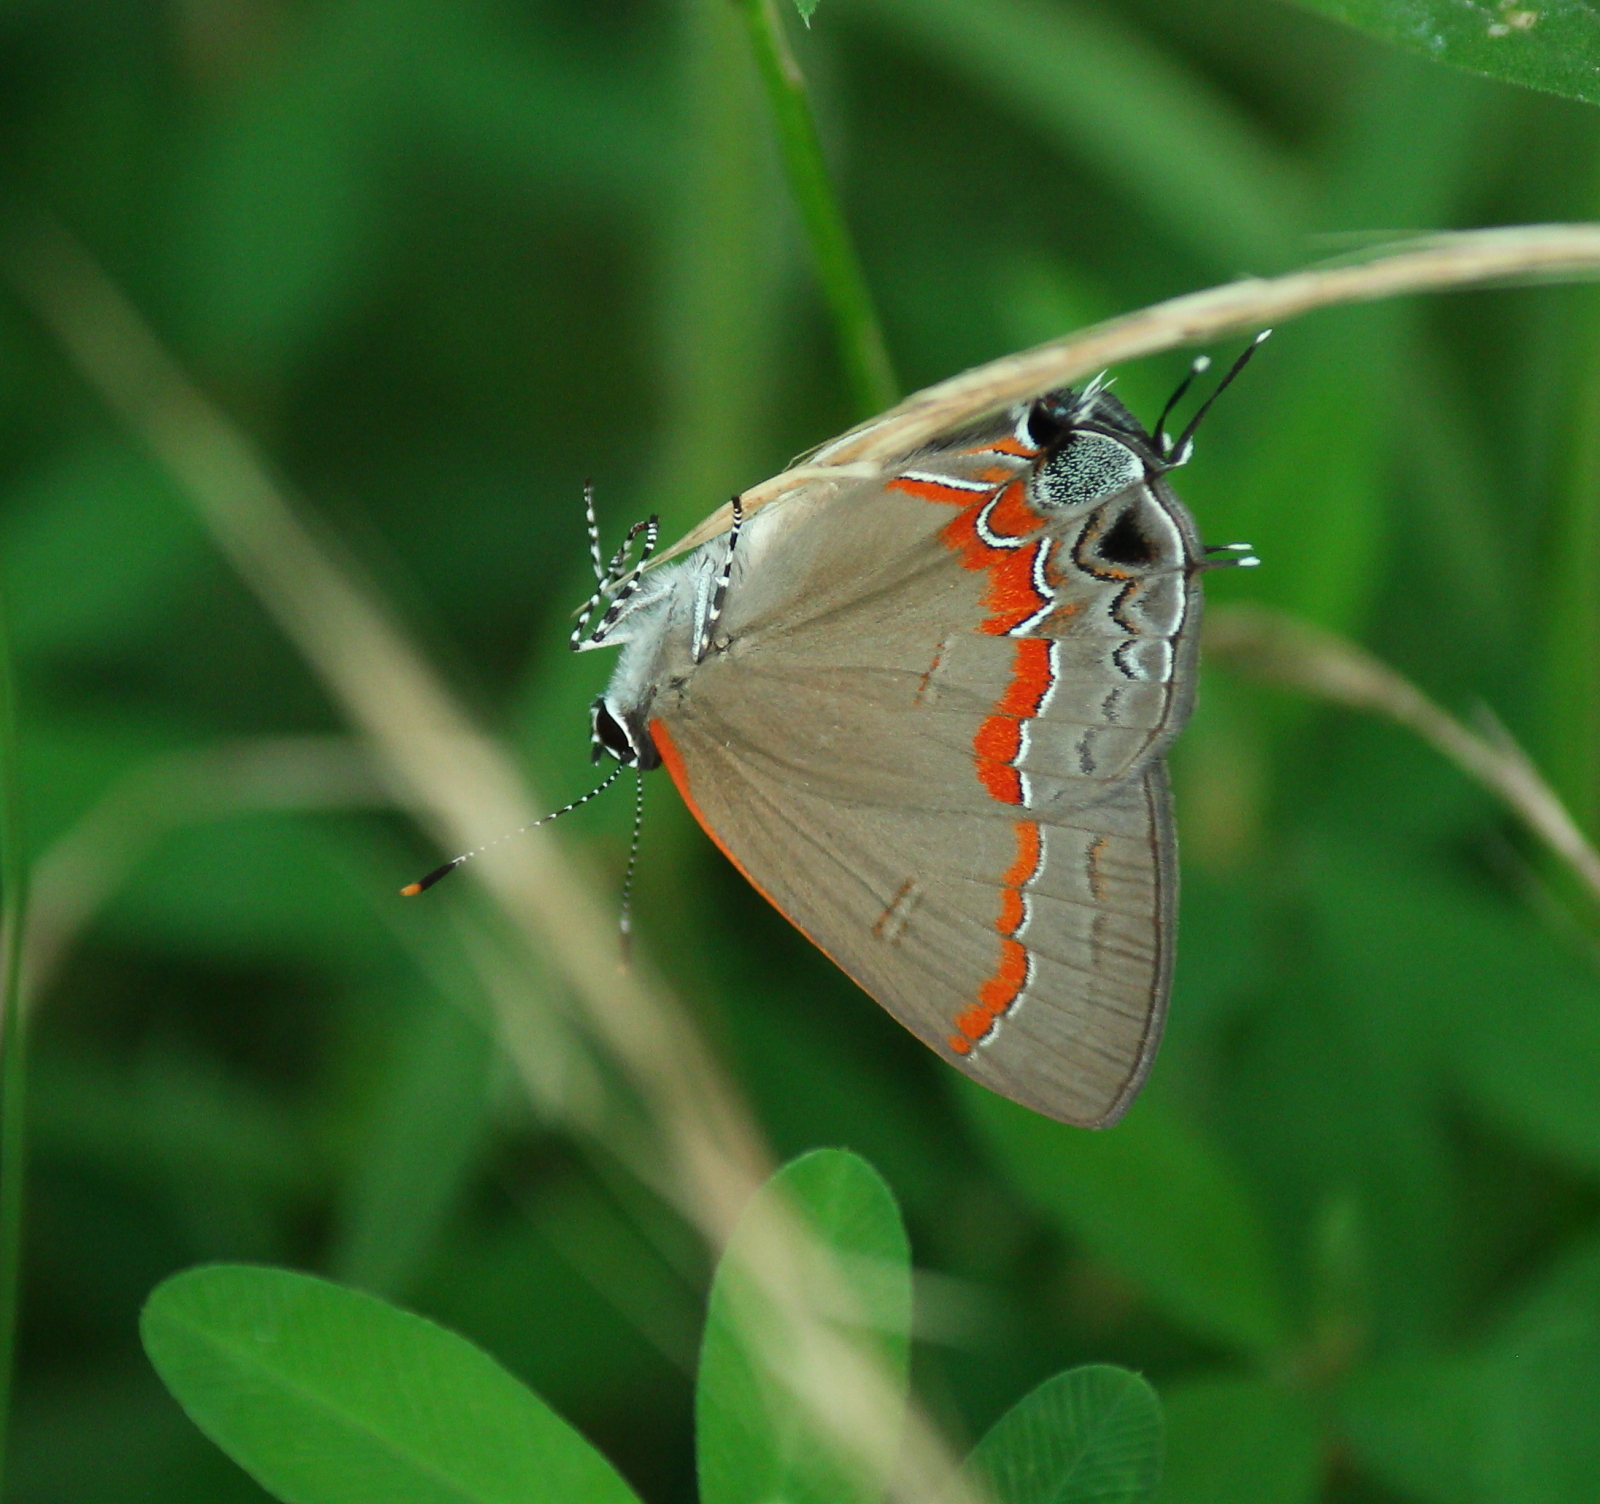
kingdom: Animalia
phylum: Arthropoda
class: Insecta
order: Lepidoptera
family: Lycaenidae
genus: Calycopis
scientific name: Calycopis cecrops
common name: Red-banded hairstreak
